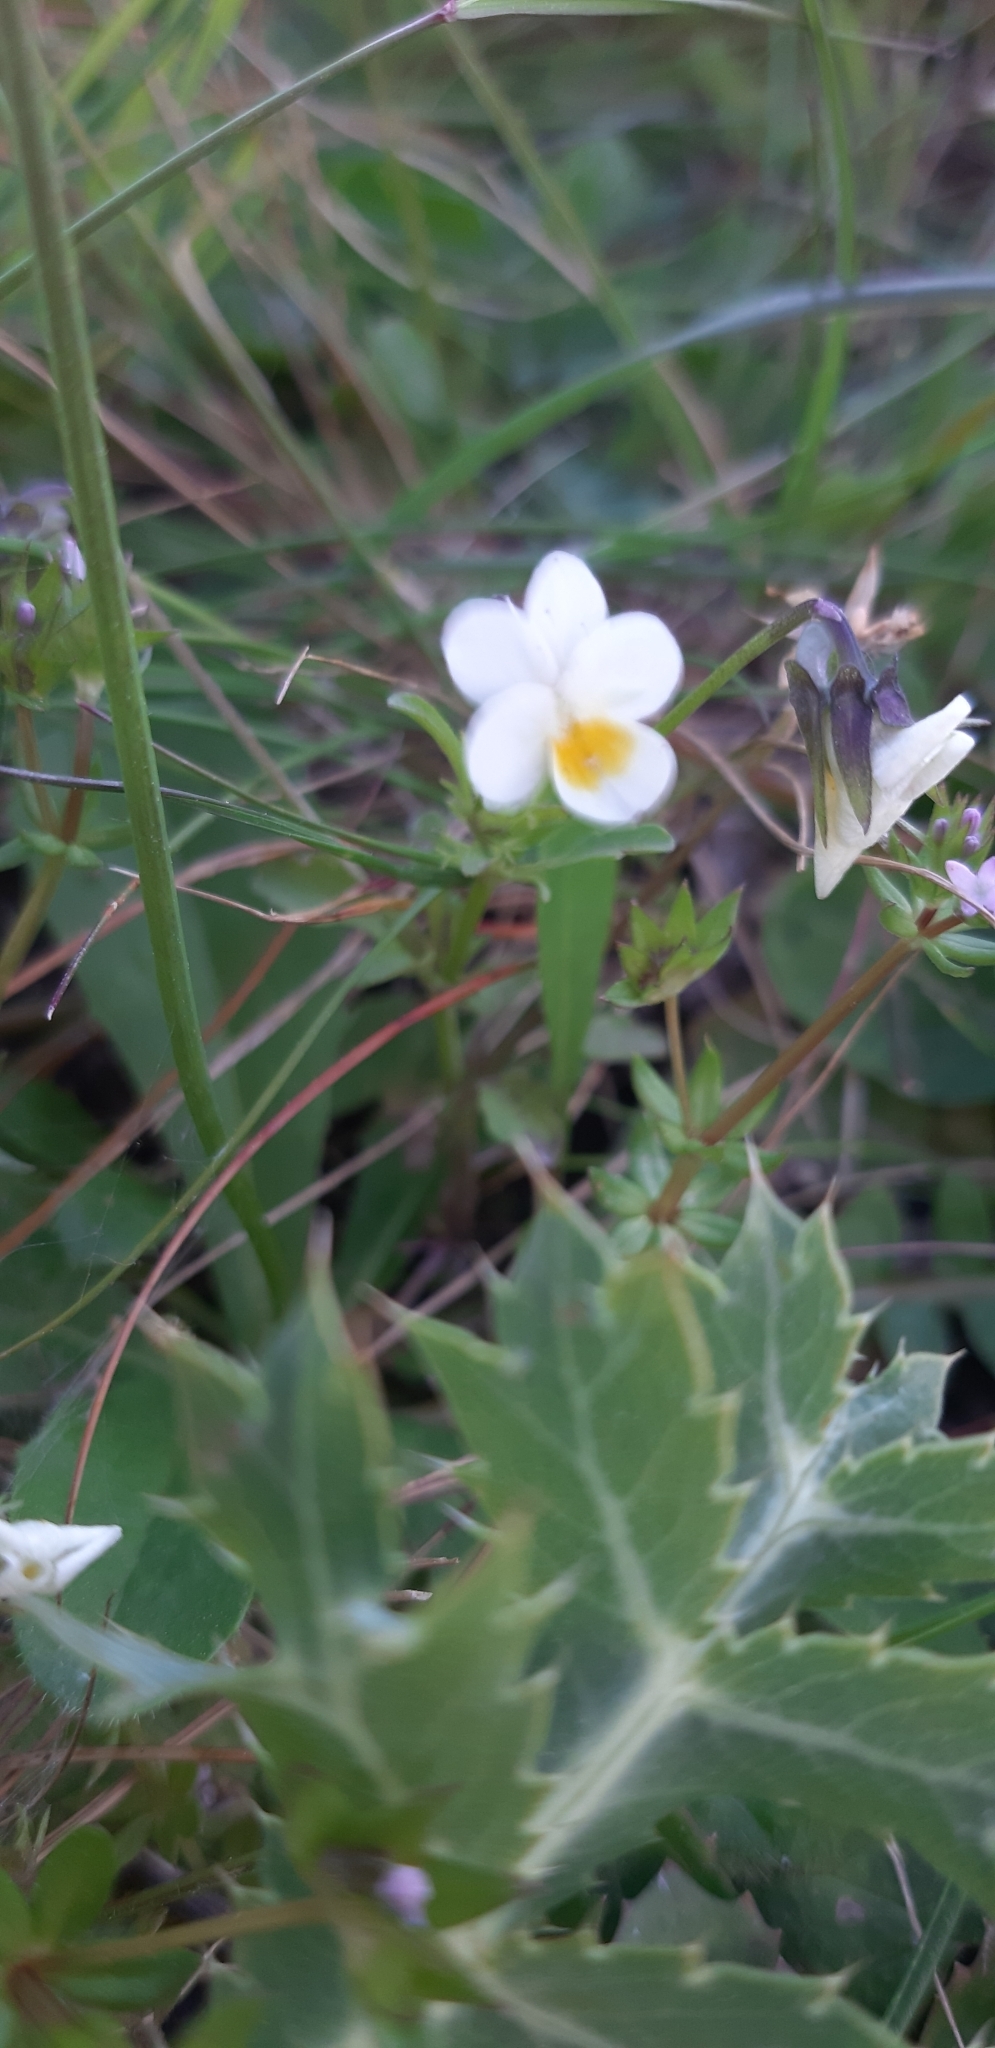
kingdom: Plantae
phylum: Tracheophyta
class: Magnoliopsida
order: Malpighiales
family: Violaceae
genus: Viola
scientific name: Viola hymettia
